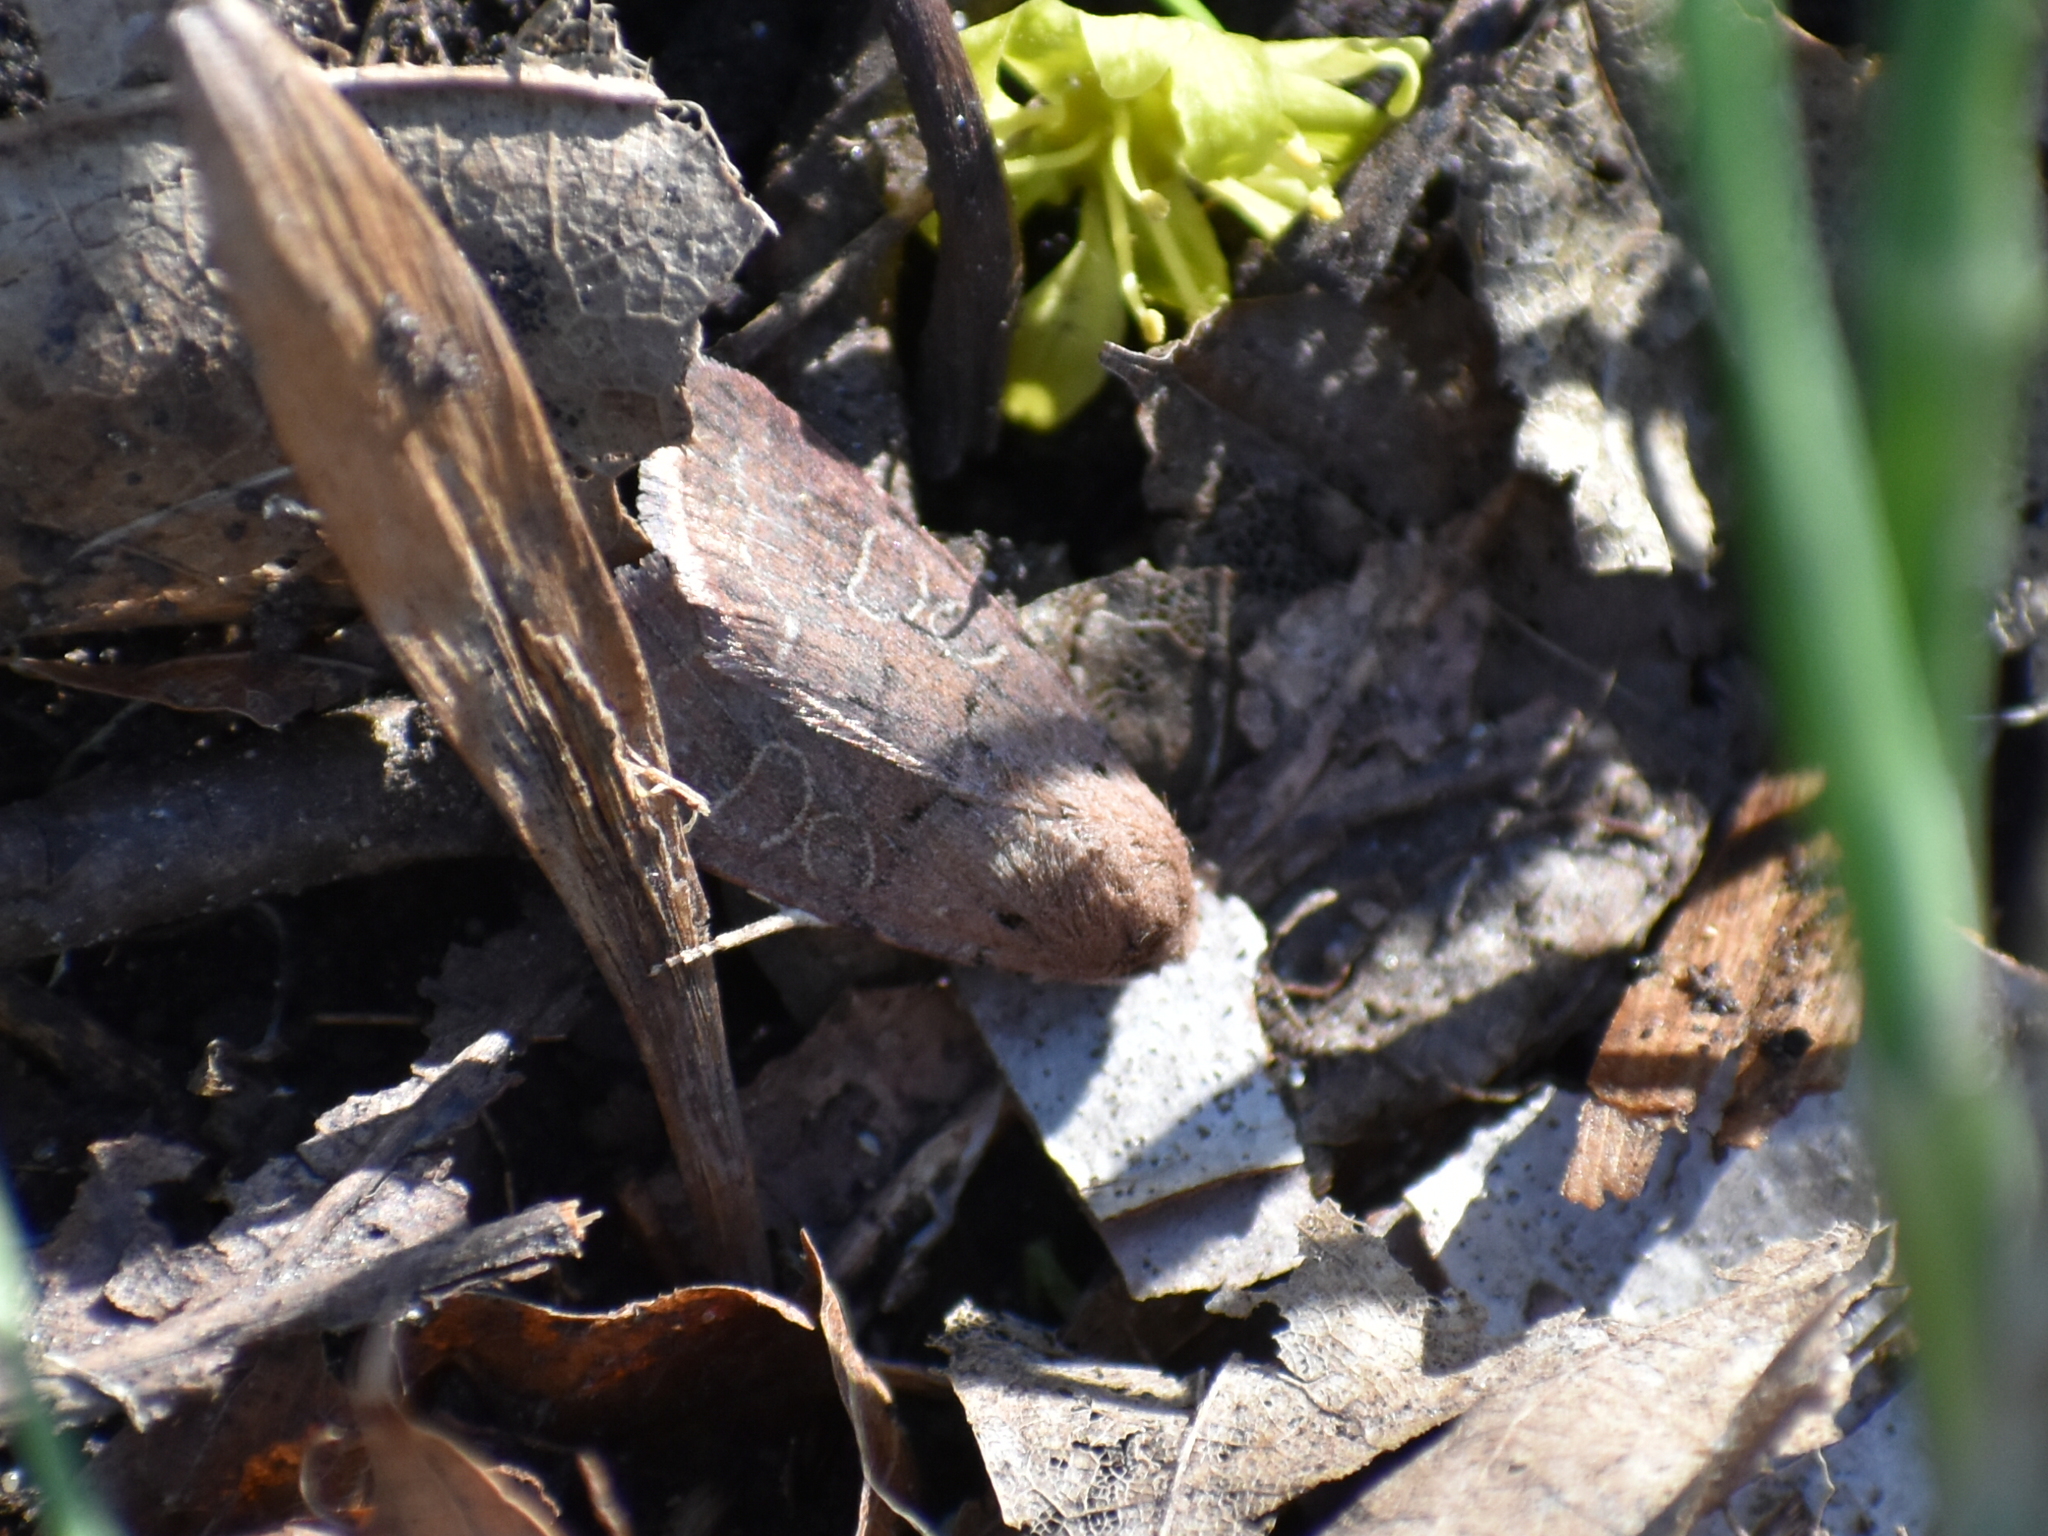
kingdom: Animalia
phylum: Arthropoda
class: Insecta
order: Lepidoptera
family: Noctuidae
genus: Trichopolia
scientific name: Trichopolia
